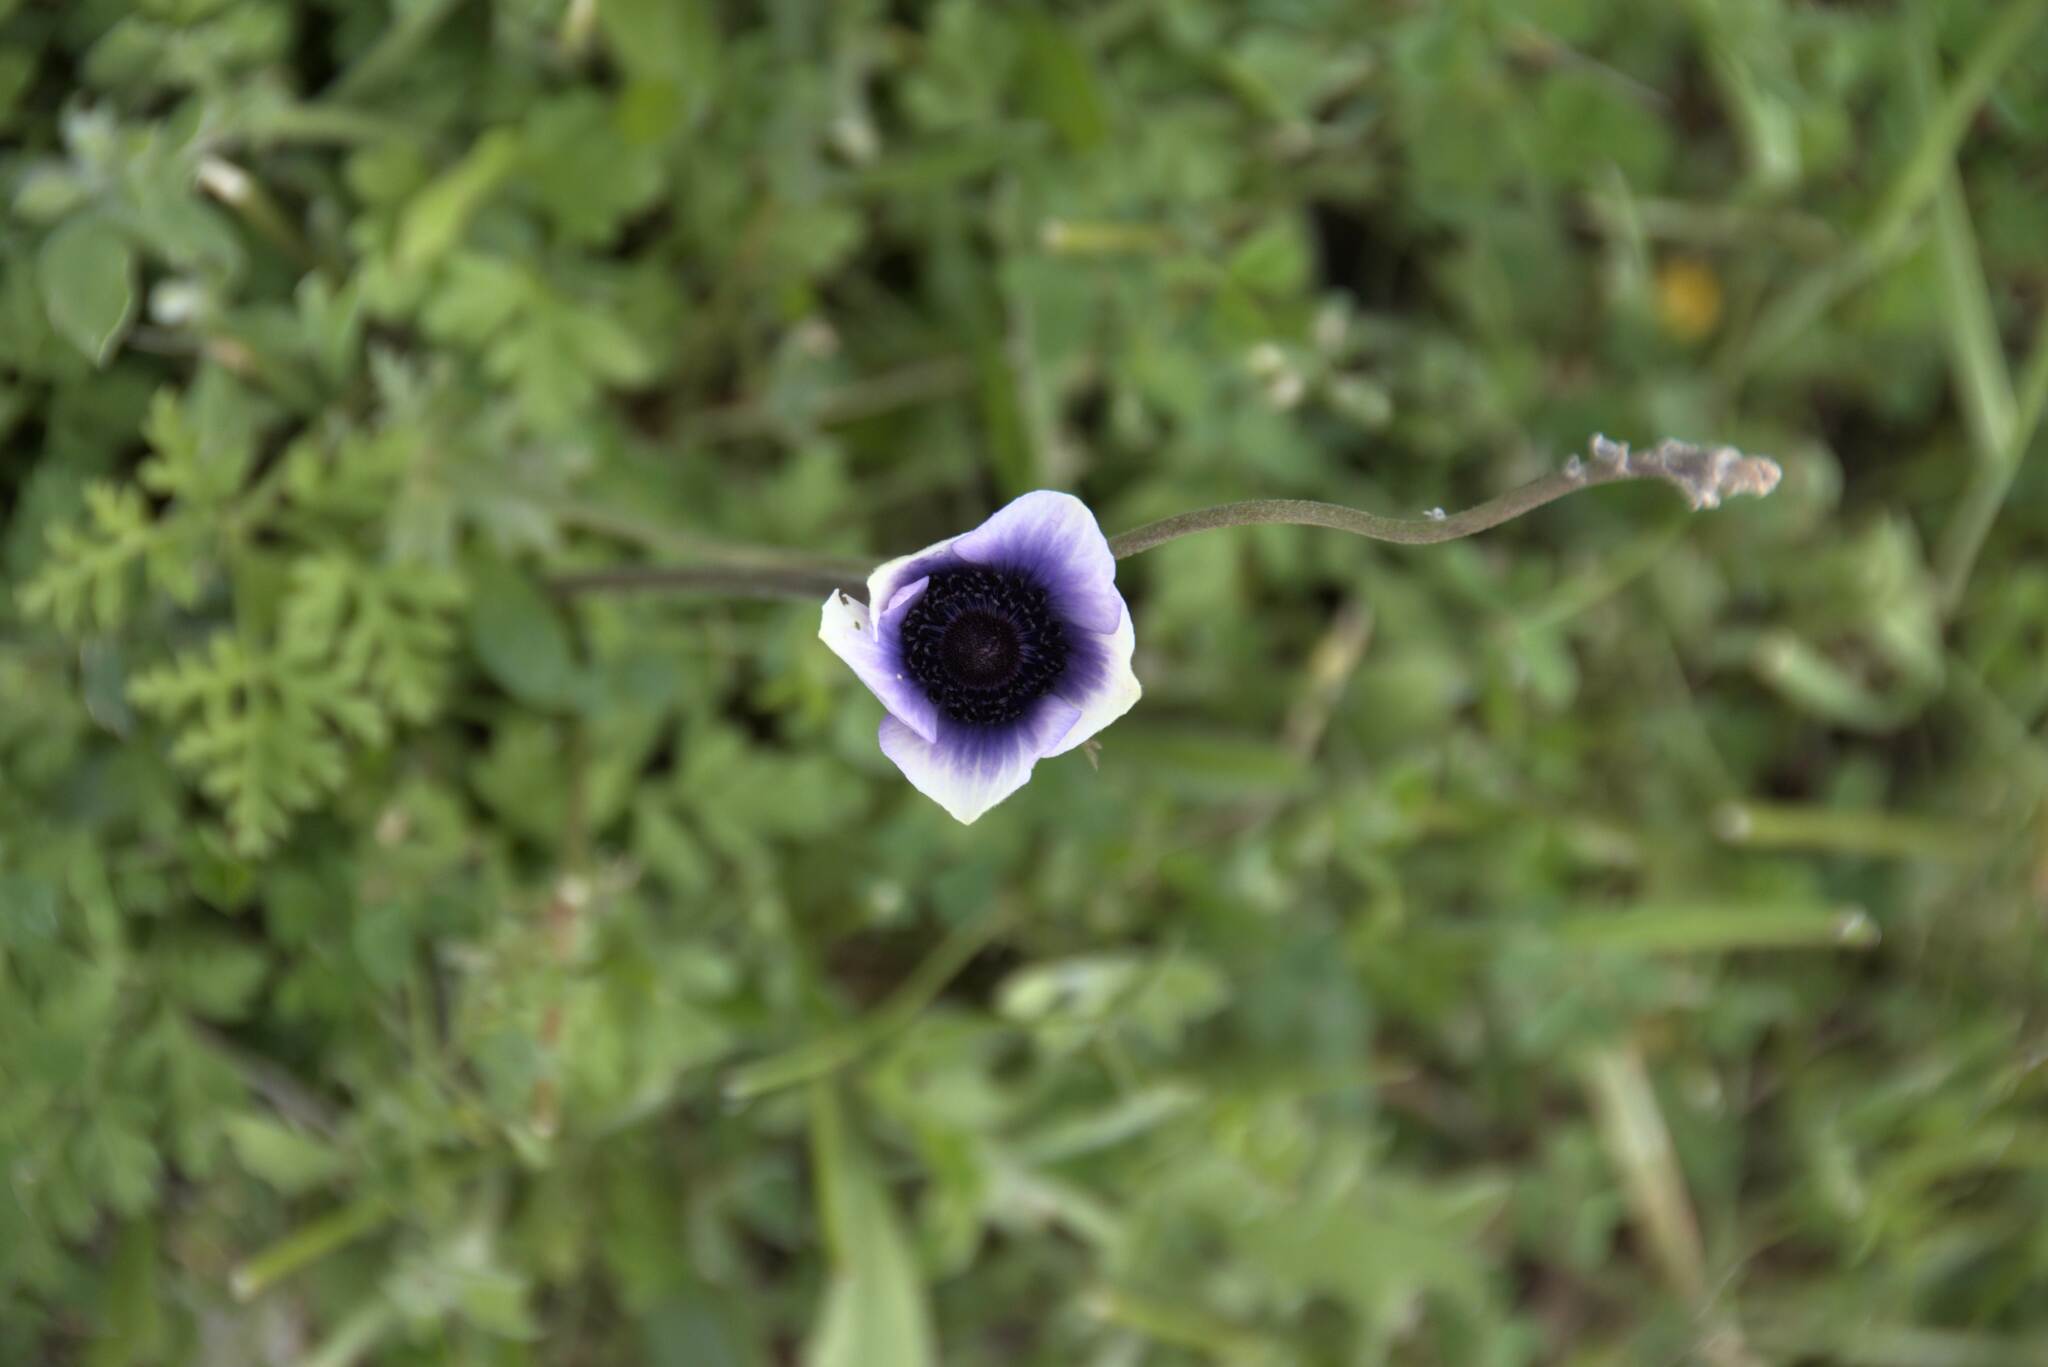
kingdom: Plantae
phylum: Tracheophyta
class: Magnoliopsida
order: Ranunculales
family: Ranunculaceae
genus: Anemone
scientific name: Anemone coronaria
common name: Poppy anemone
